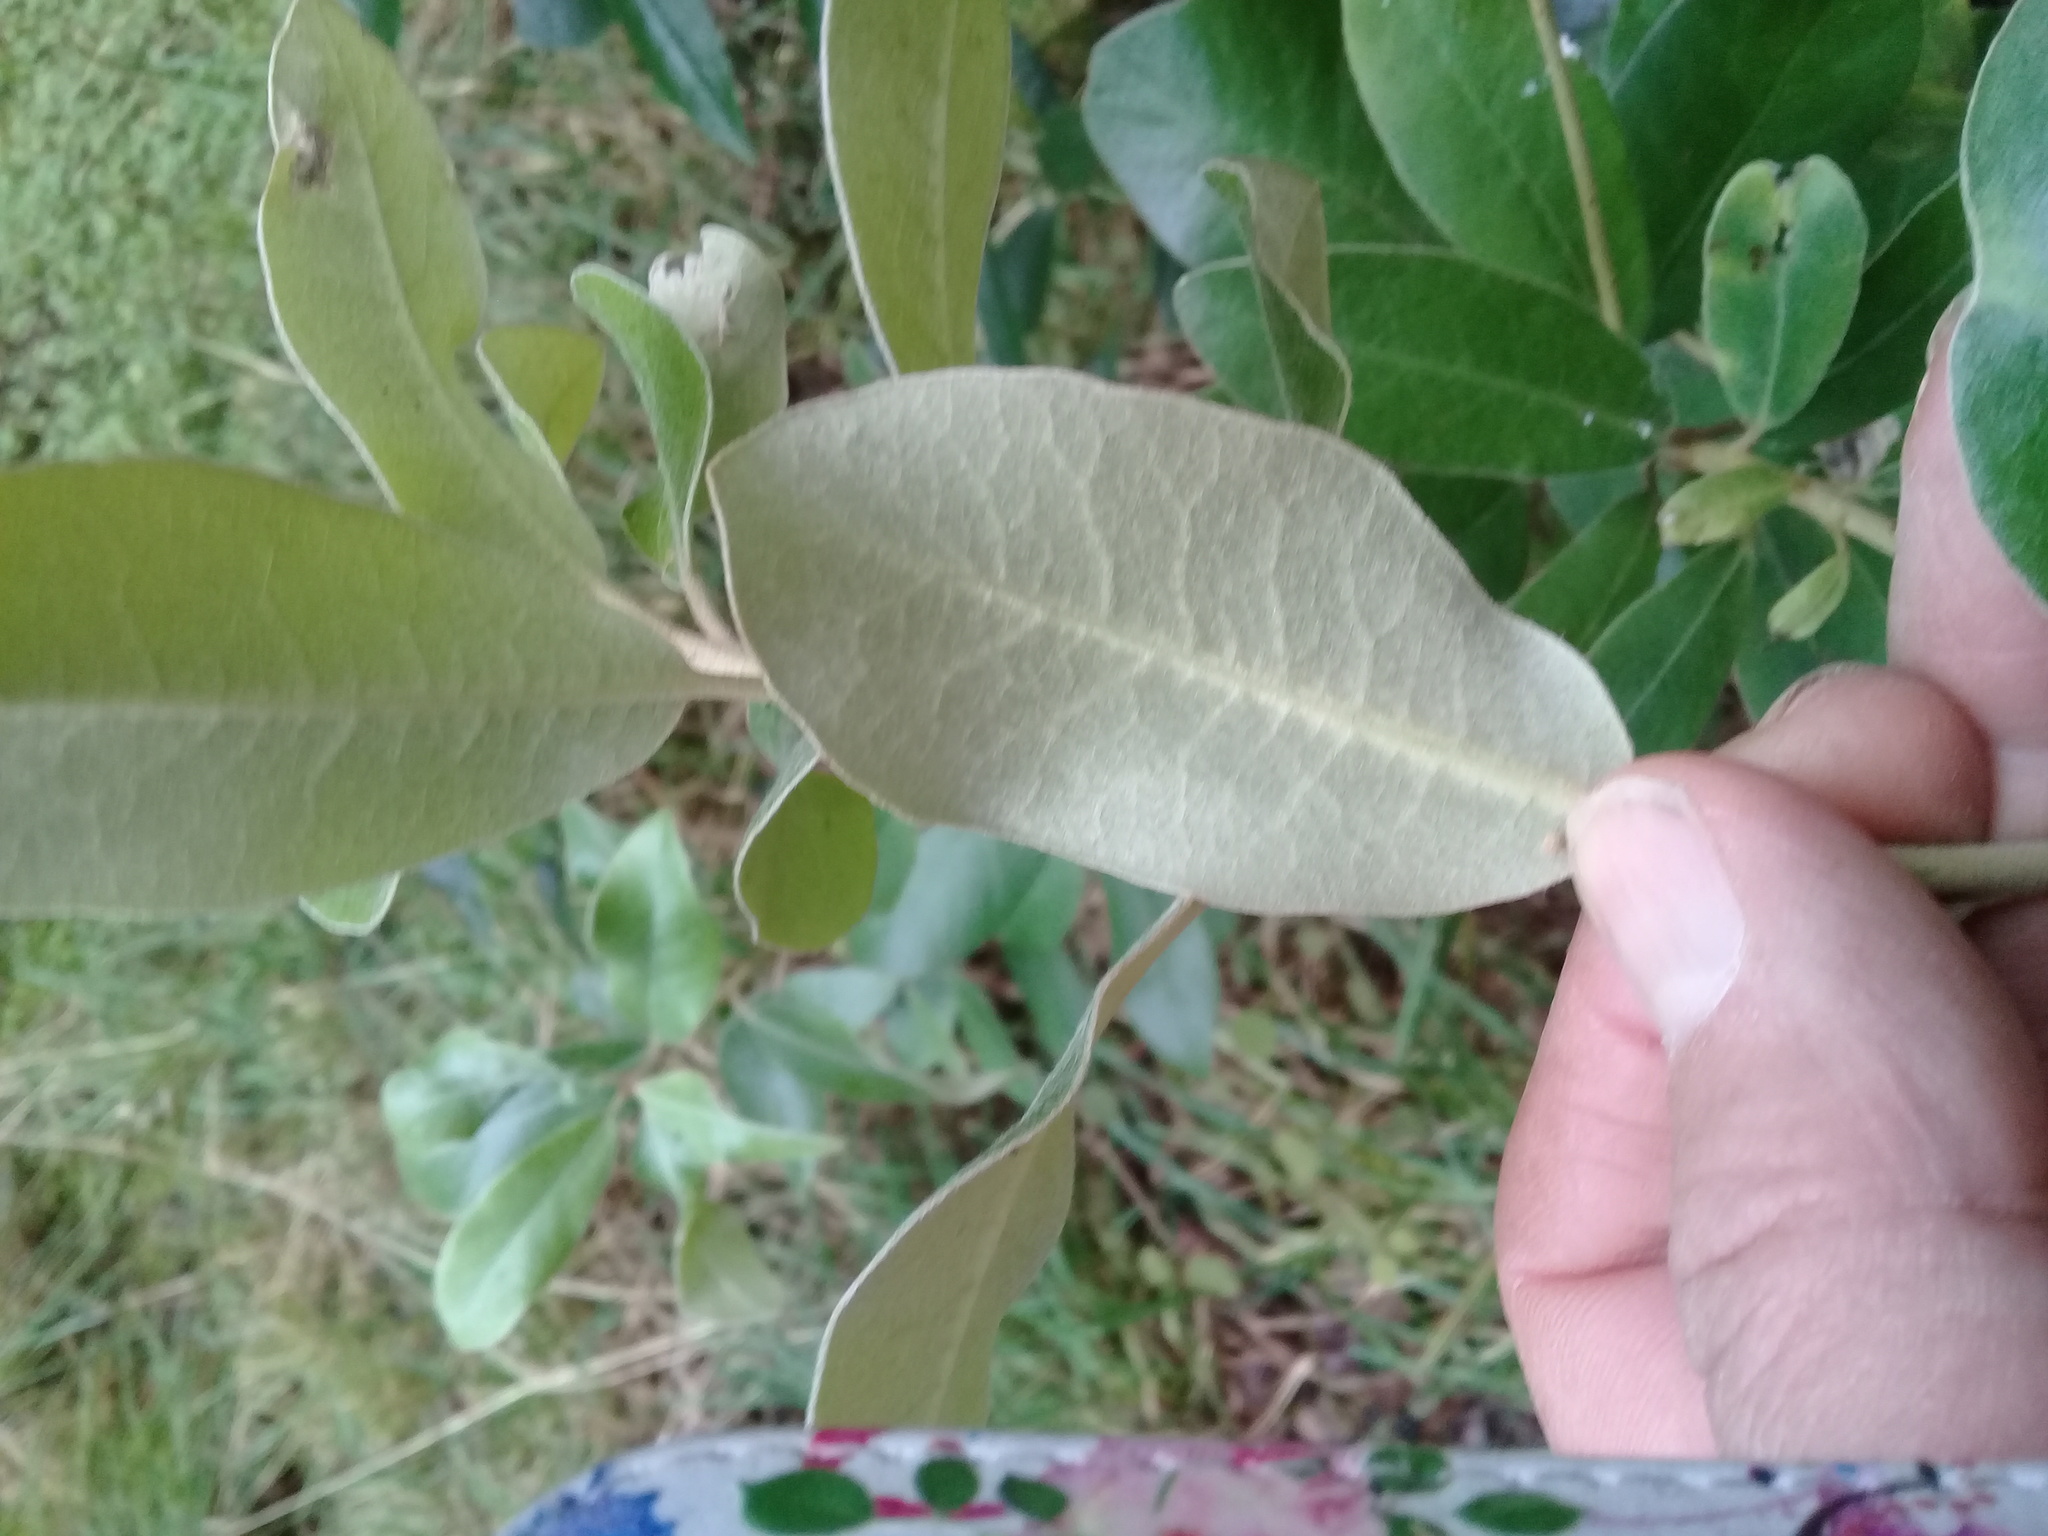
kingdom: Plantae
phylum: Tracheophyta
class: Magnoliopsida
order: Apiales
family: Pittosporaceae
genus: Pittosporum
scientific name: Pittosporum ralphii
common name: Ralph's desertwillow
